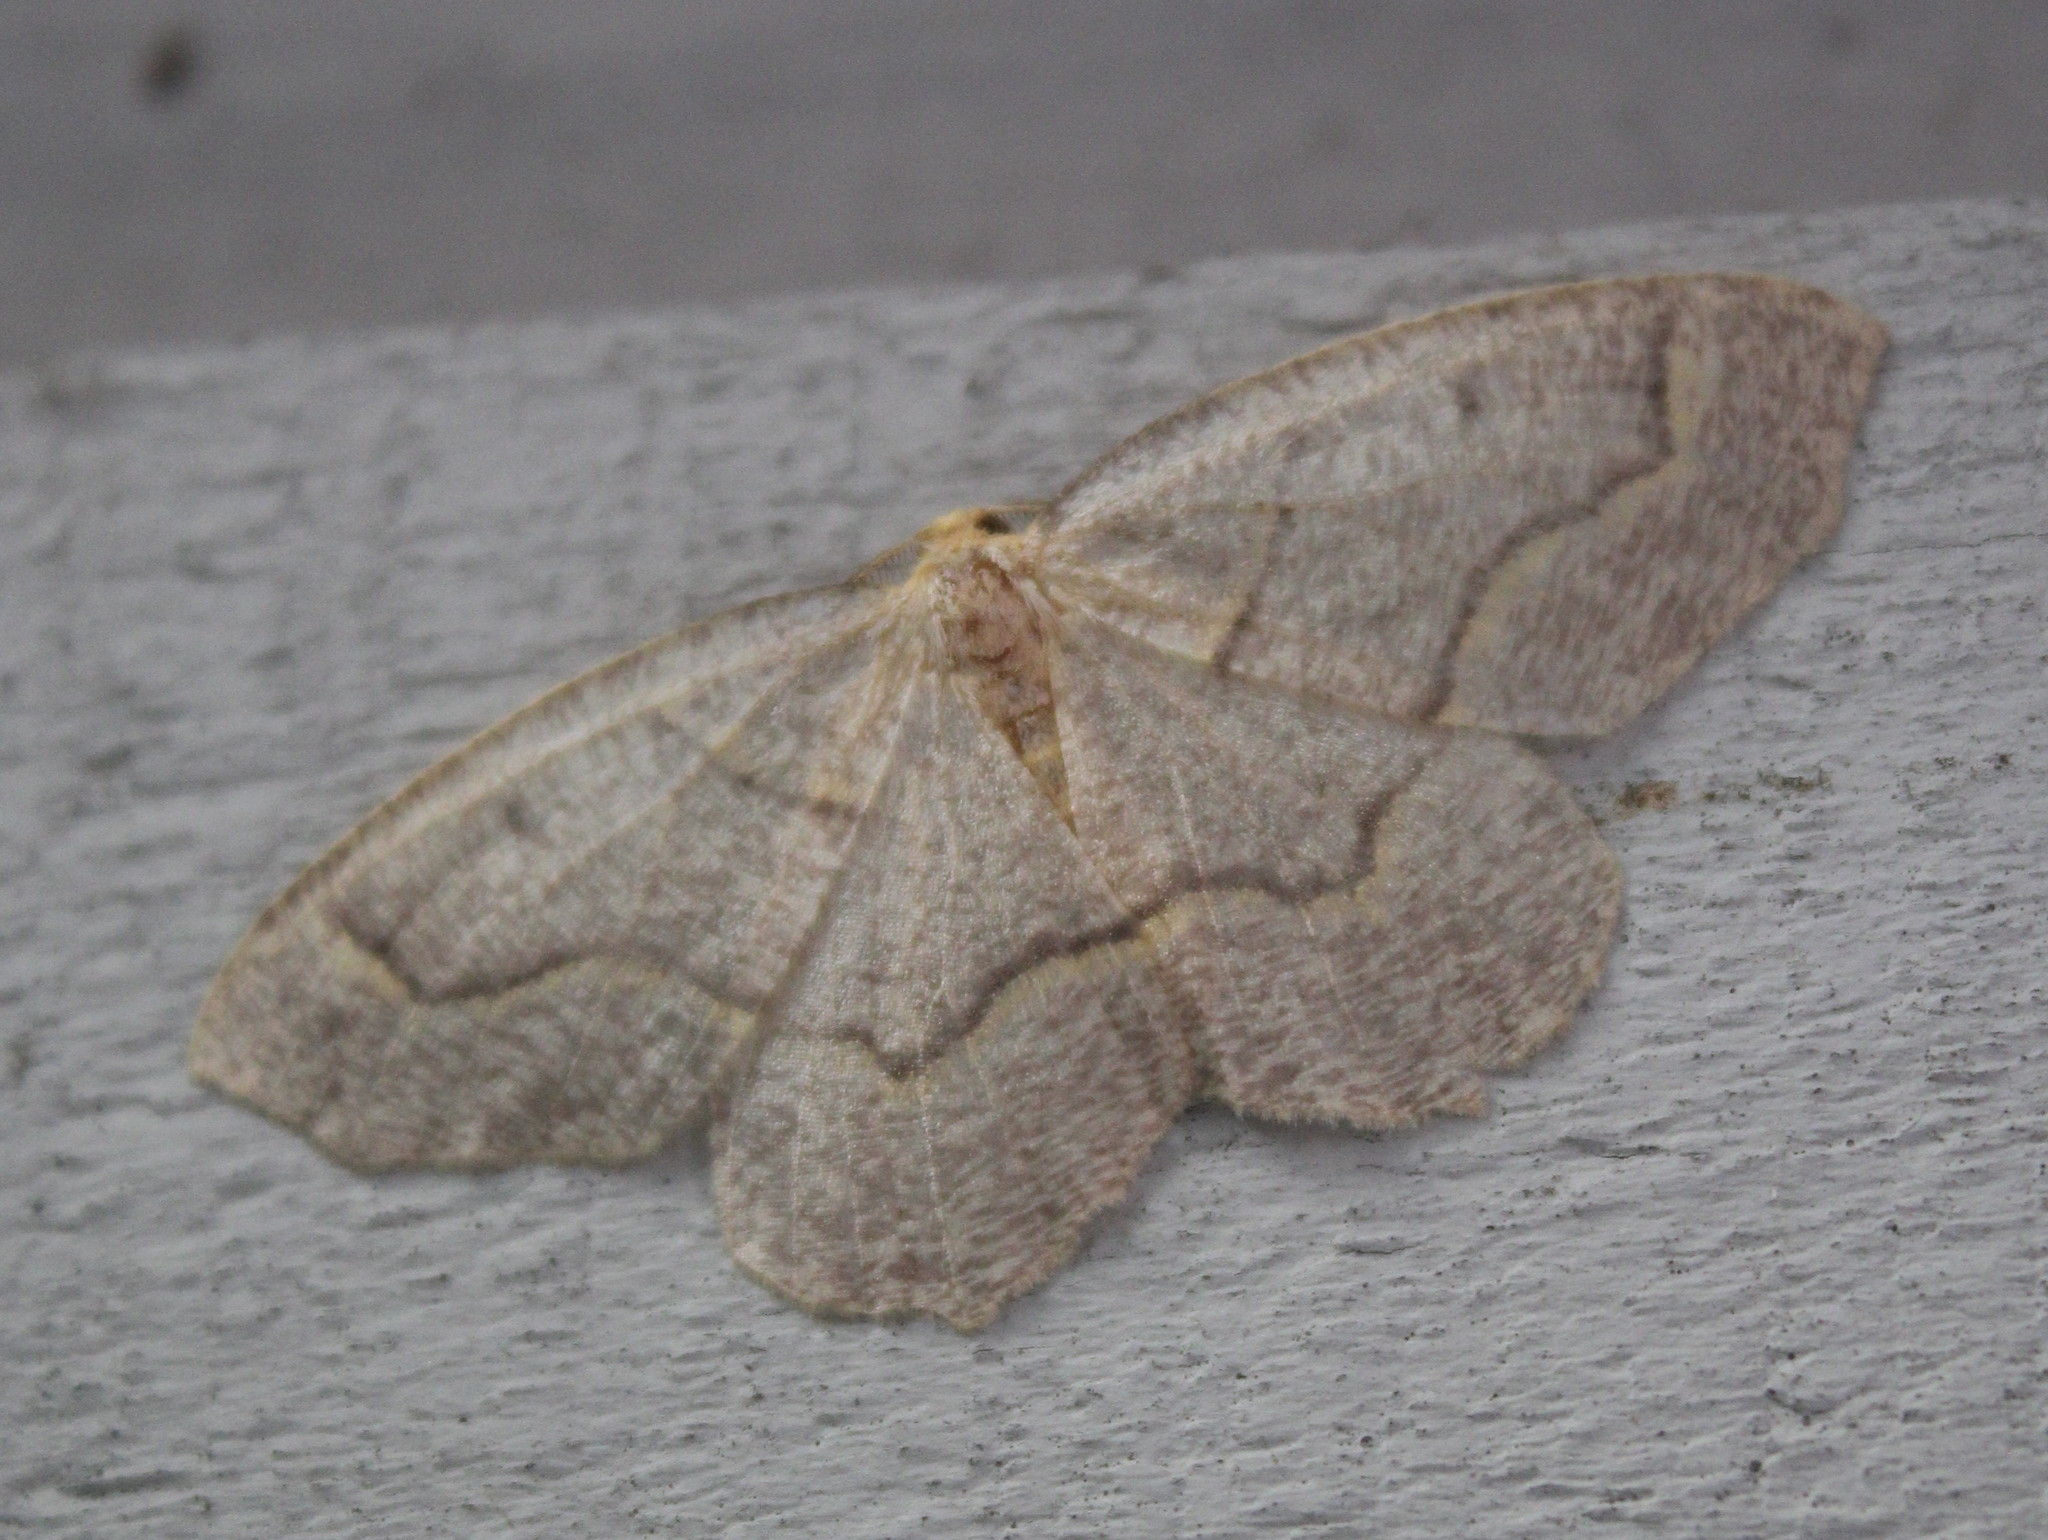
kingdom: Animalia
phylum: Arthropoda
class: Insecta
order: Lepidoptera
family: Geometridae
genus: Lambdina
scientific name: Lambdina fiscellaria
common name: Hemlock looper
